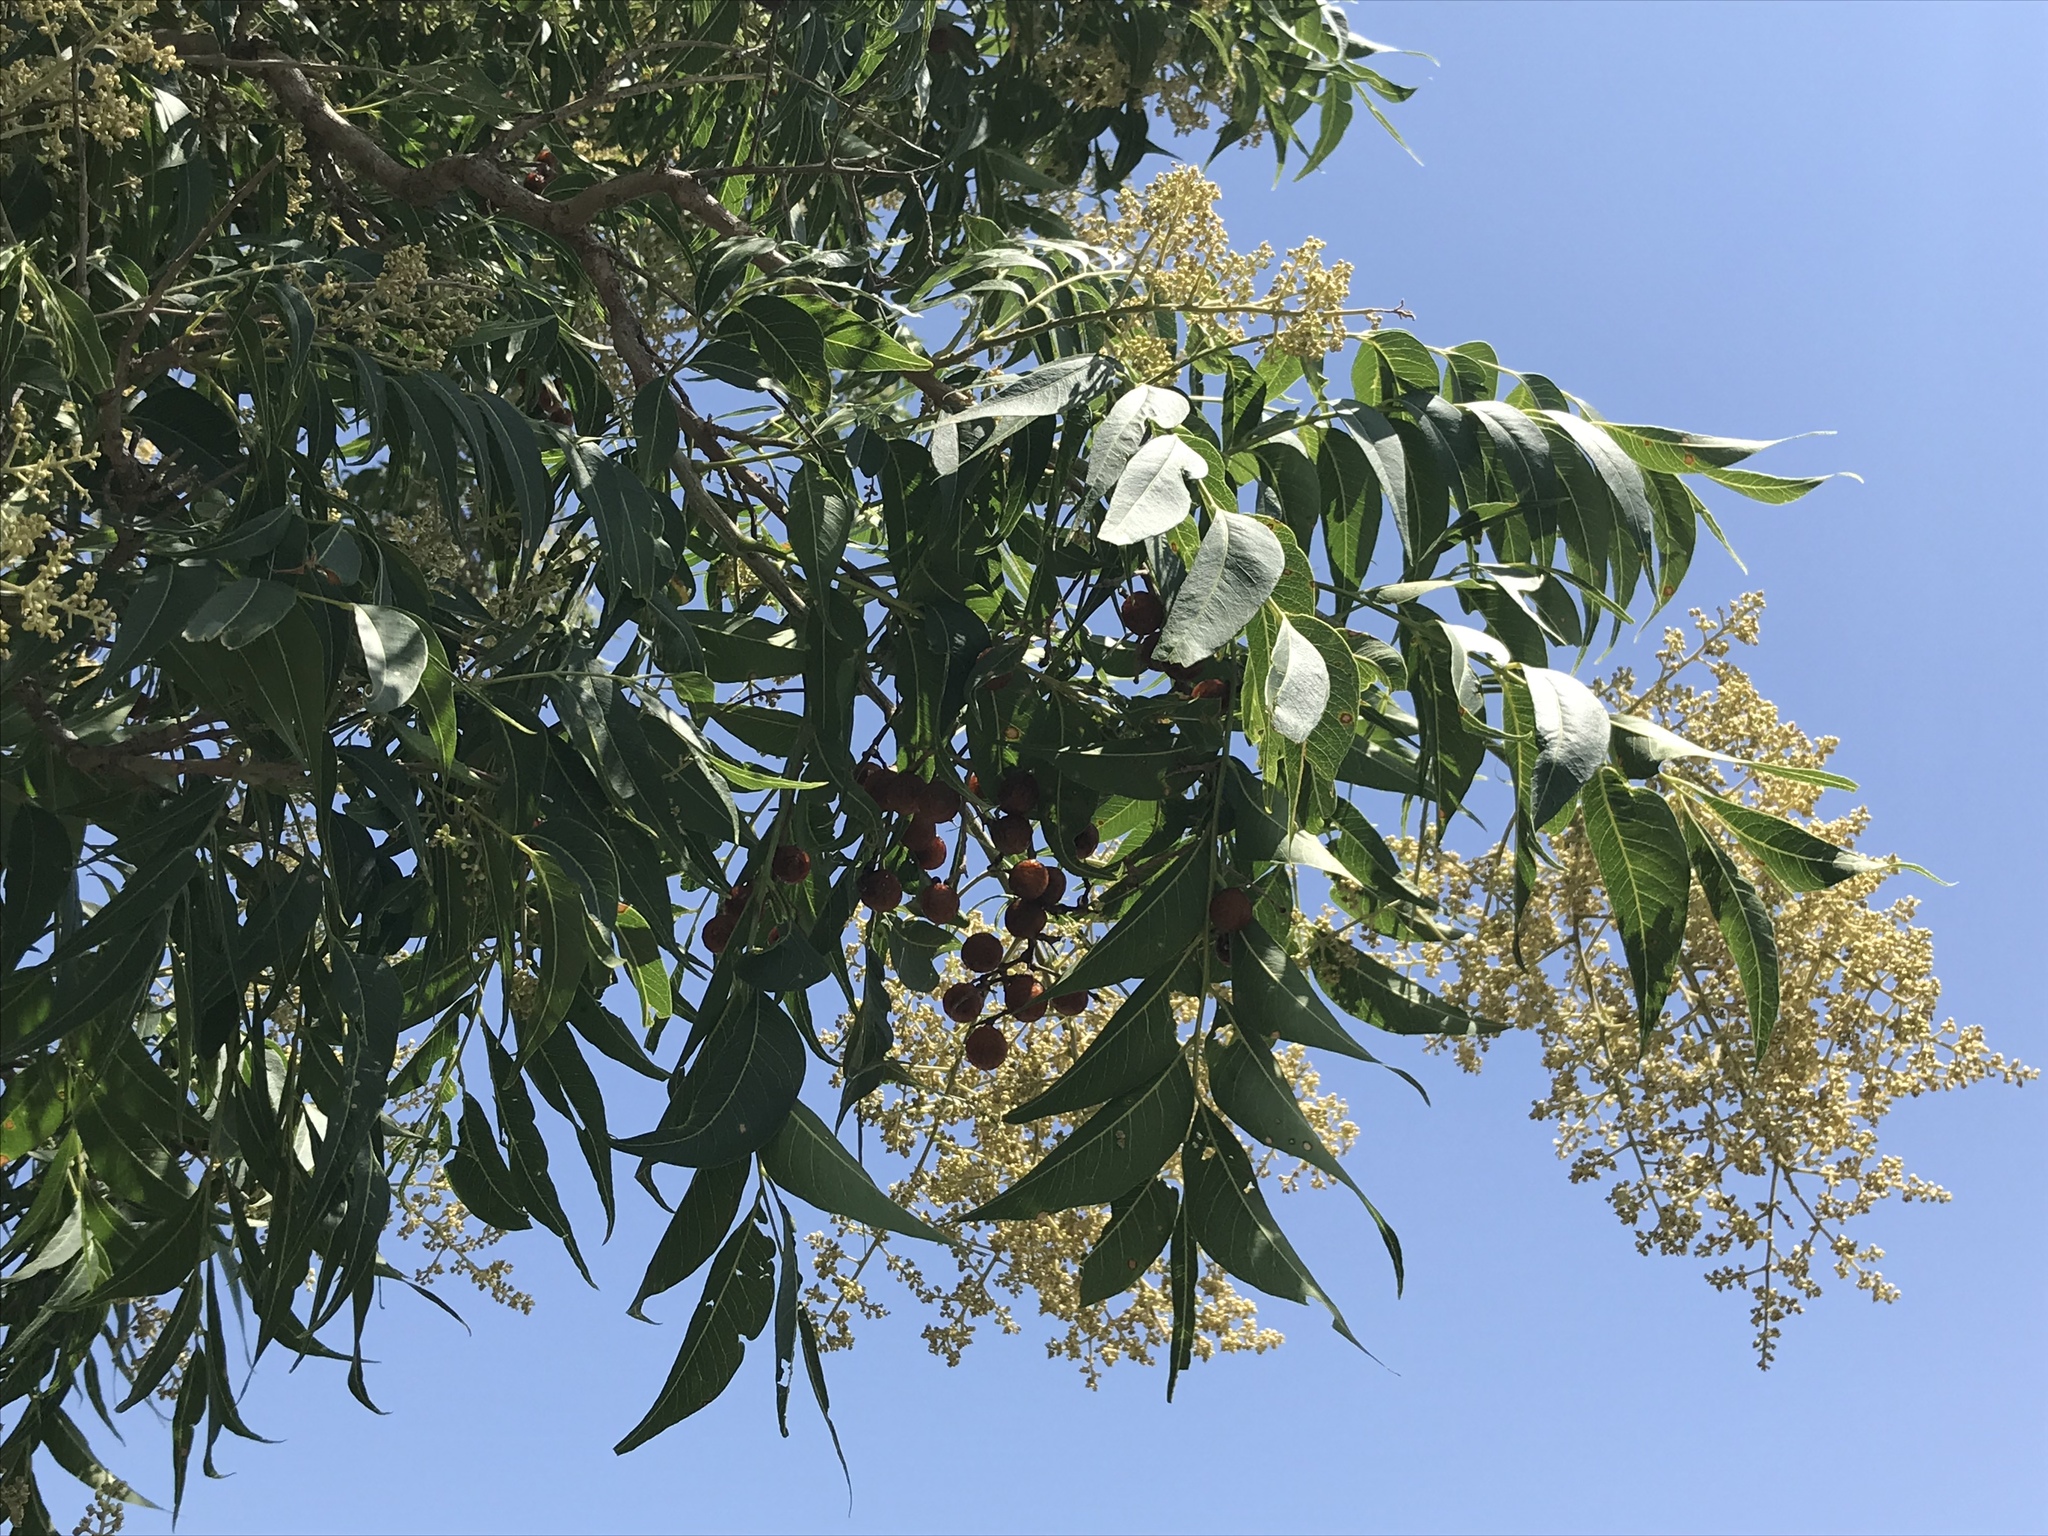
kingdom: Plantae
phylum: Tracheophyta
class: Magnoliopsida
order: Sapindales
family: Sapindaceae
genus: Sapindus
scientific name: Sapindus drummondii
